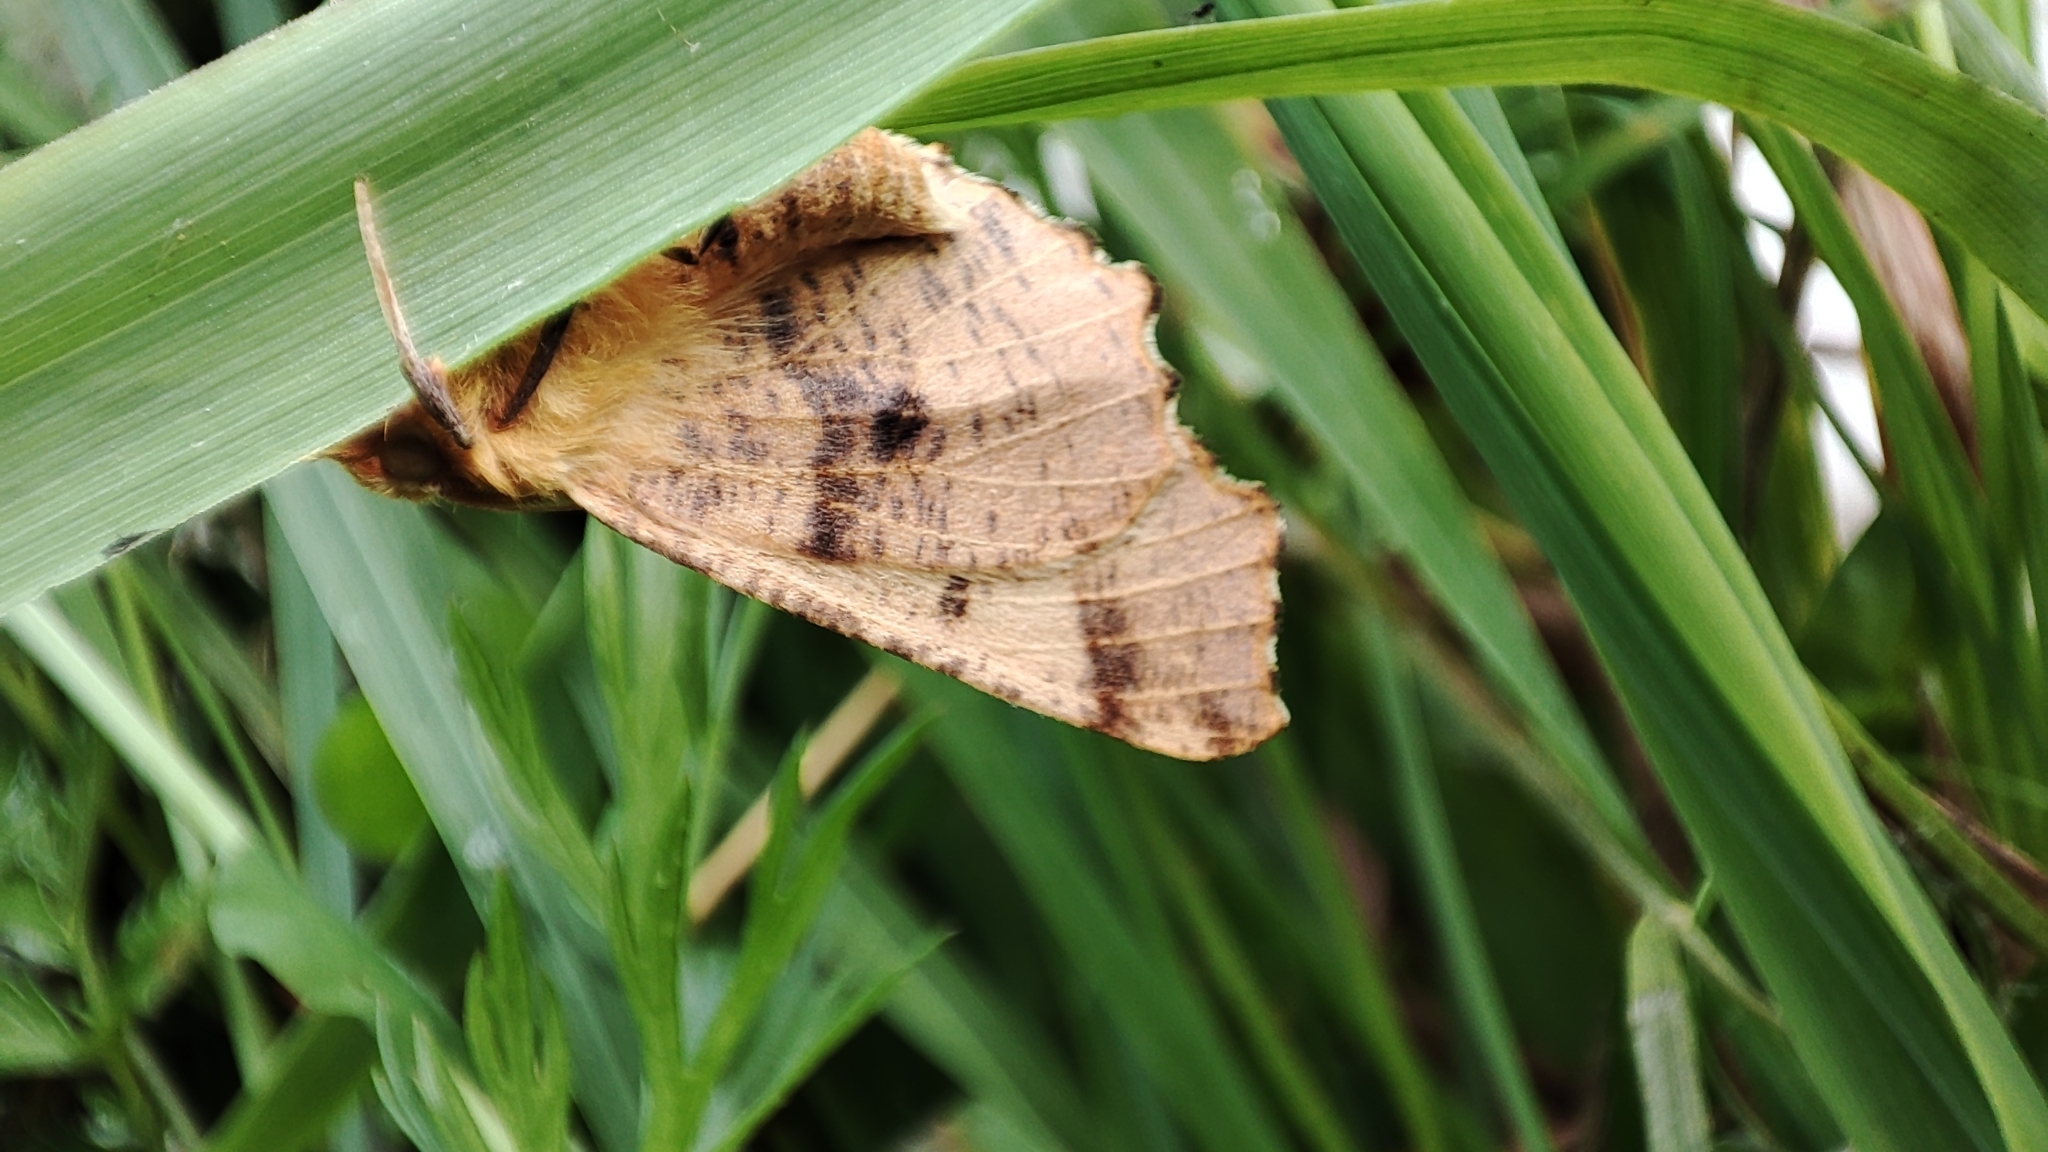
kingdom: Animalia
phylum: Arthropoda
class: Insecta
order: Lepidoptera
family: Geometridae
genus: Ennomos
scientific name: Ennomos autumnaria
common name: Large thorn
